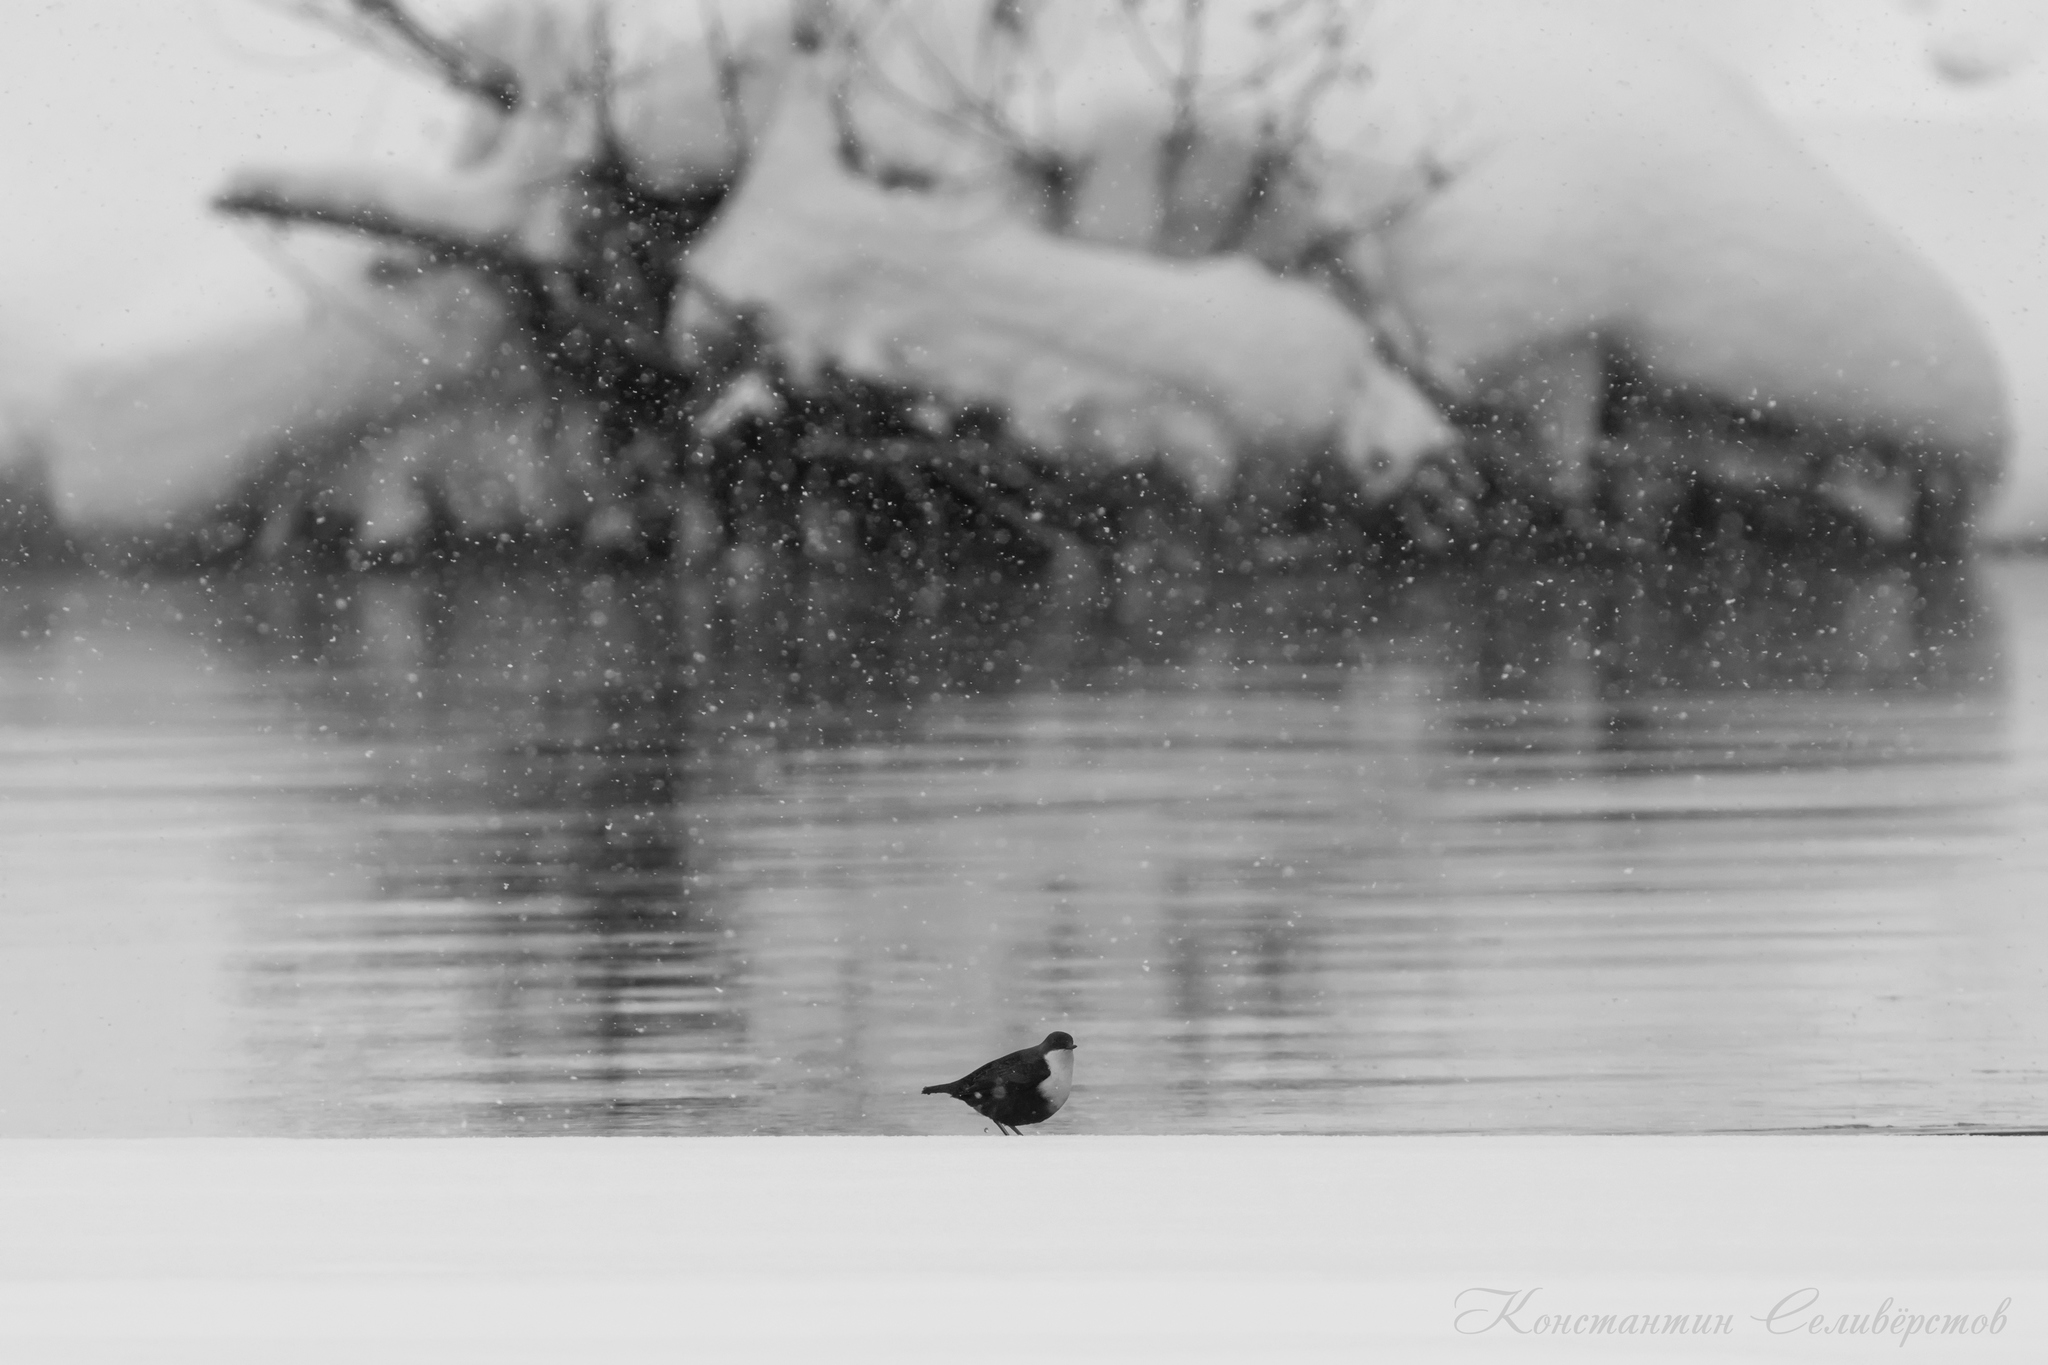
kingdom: Animalia
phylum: Chordata
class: Aves
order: Passeriformes
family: Cinclidae
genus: Cinclus
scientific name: Cinclus cinclus
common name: White-throated dipper
